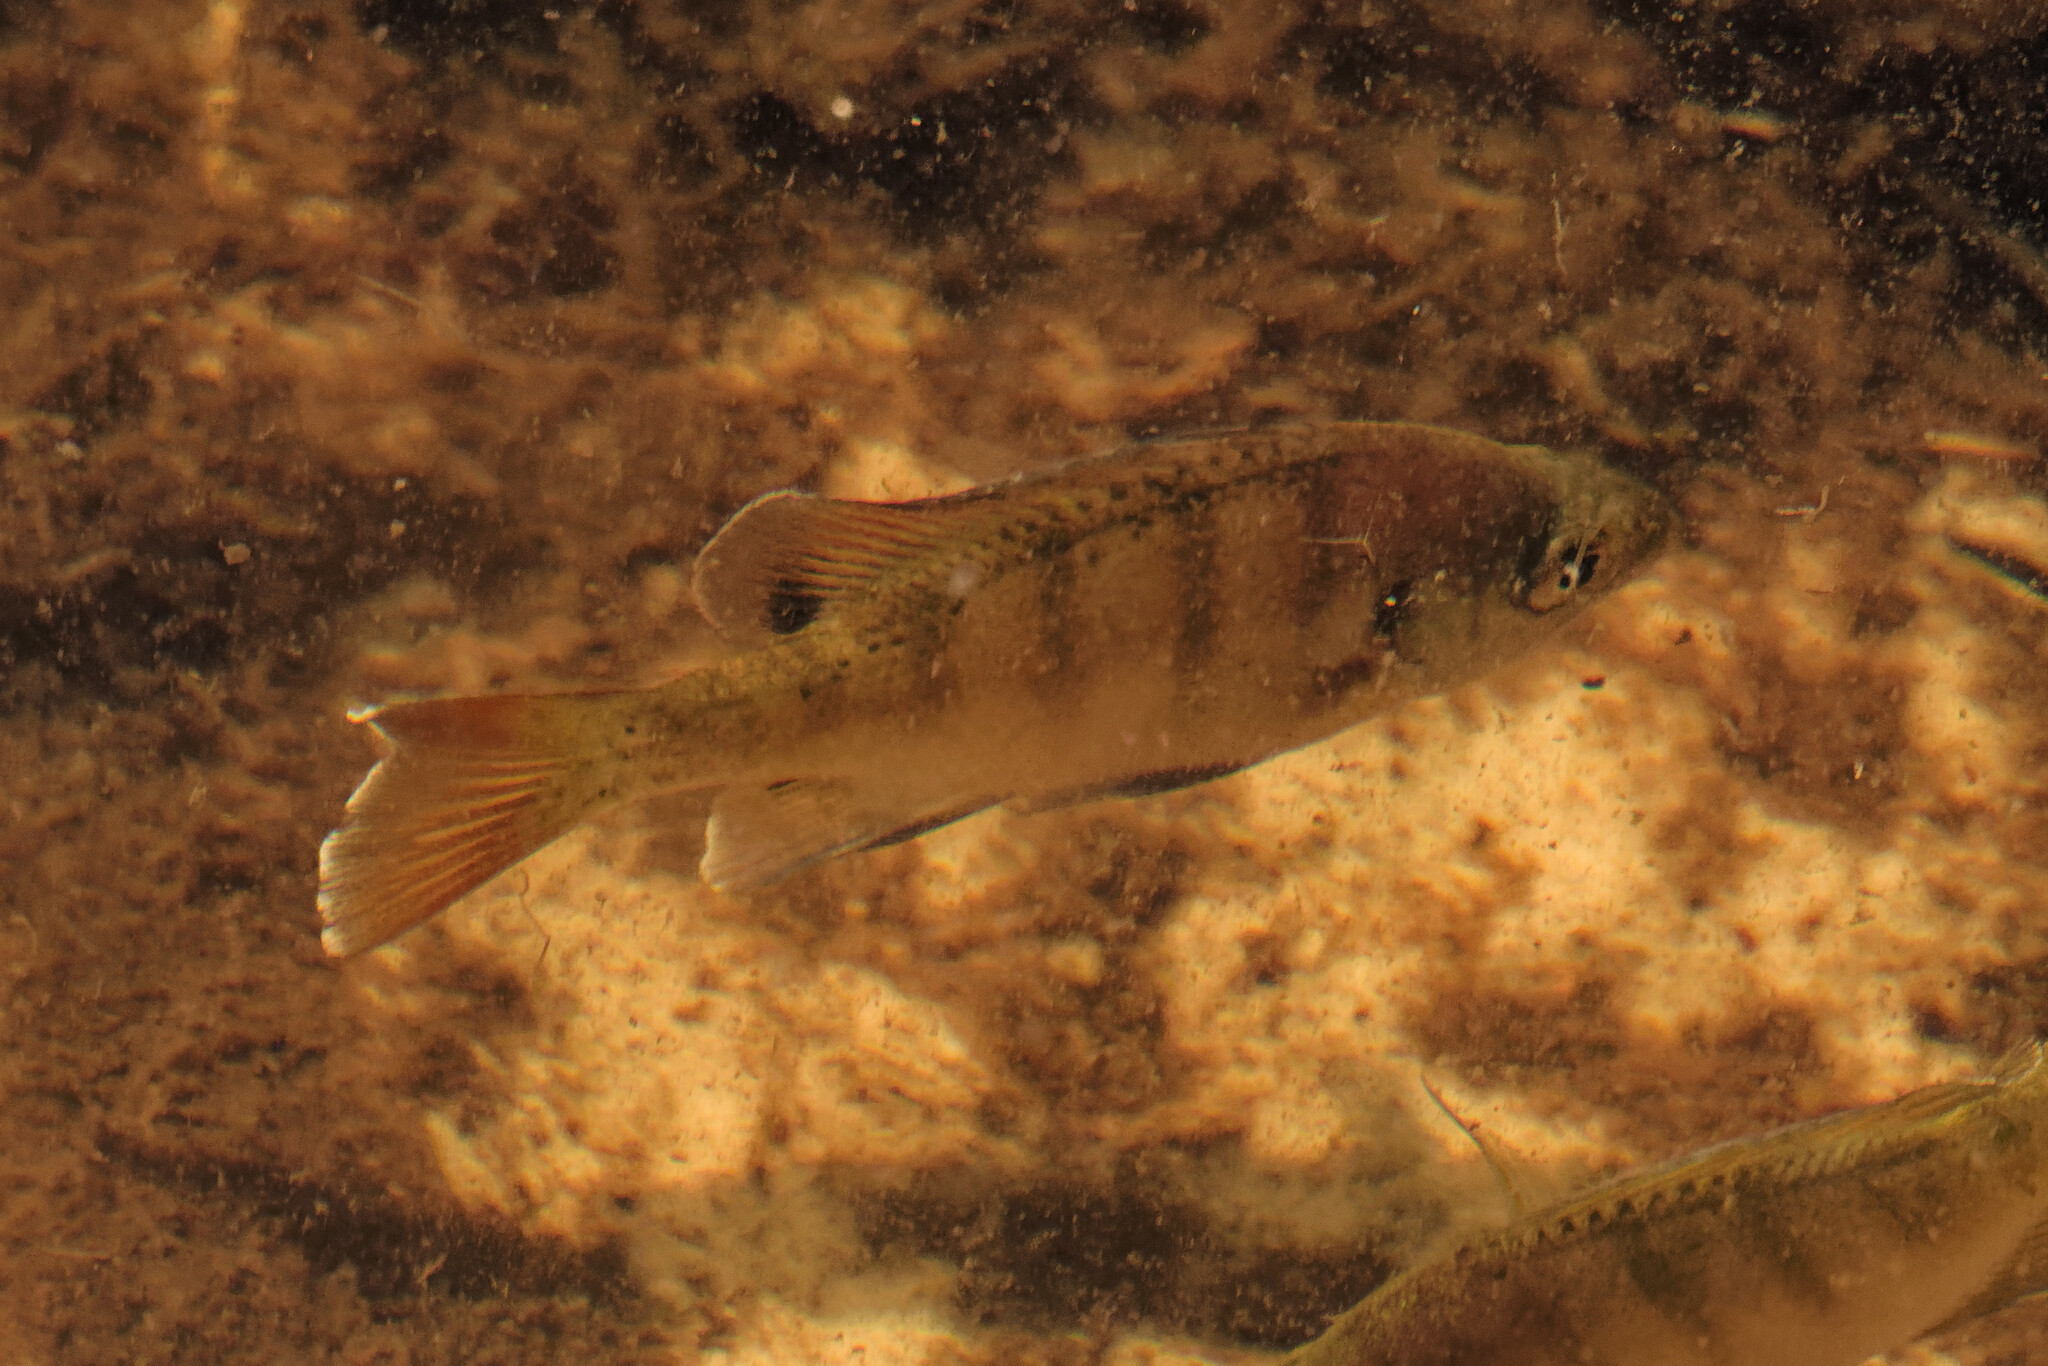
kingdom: Animalia
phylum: Chordata
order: Perciformes
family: Centrarchidae
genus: Lepomis
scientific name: Lepomis macrochirus
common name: Bluegill
